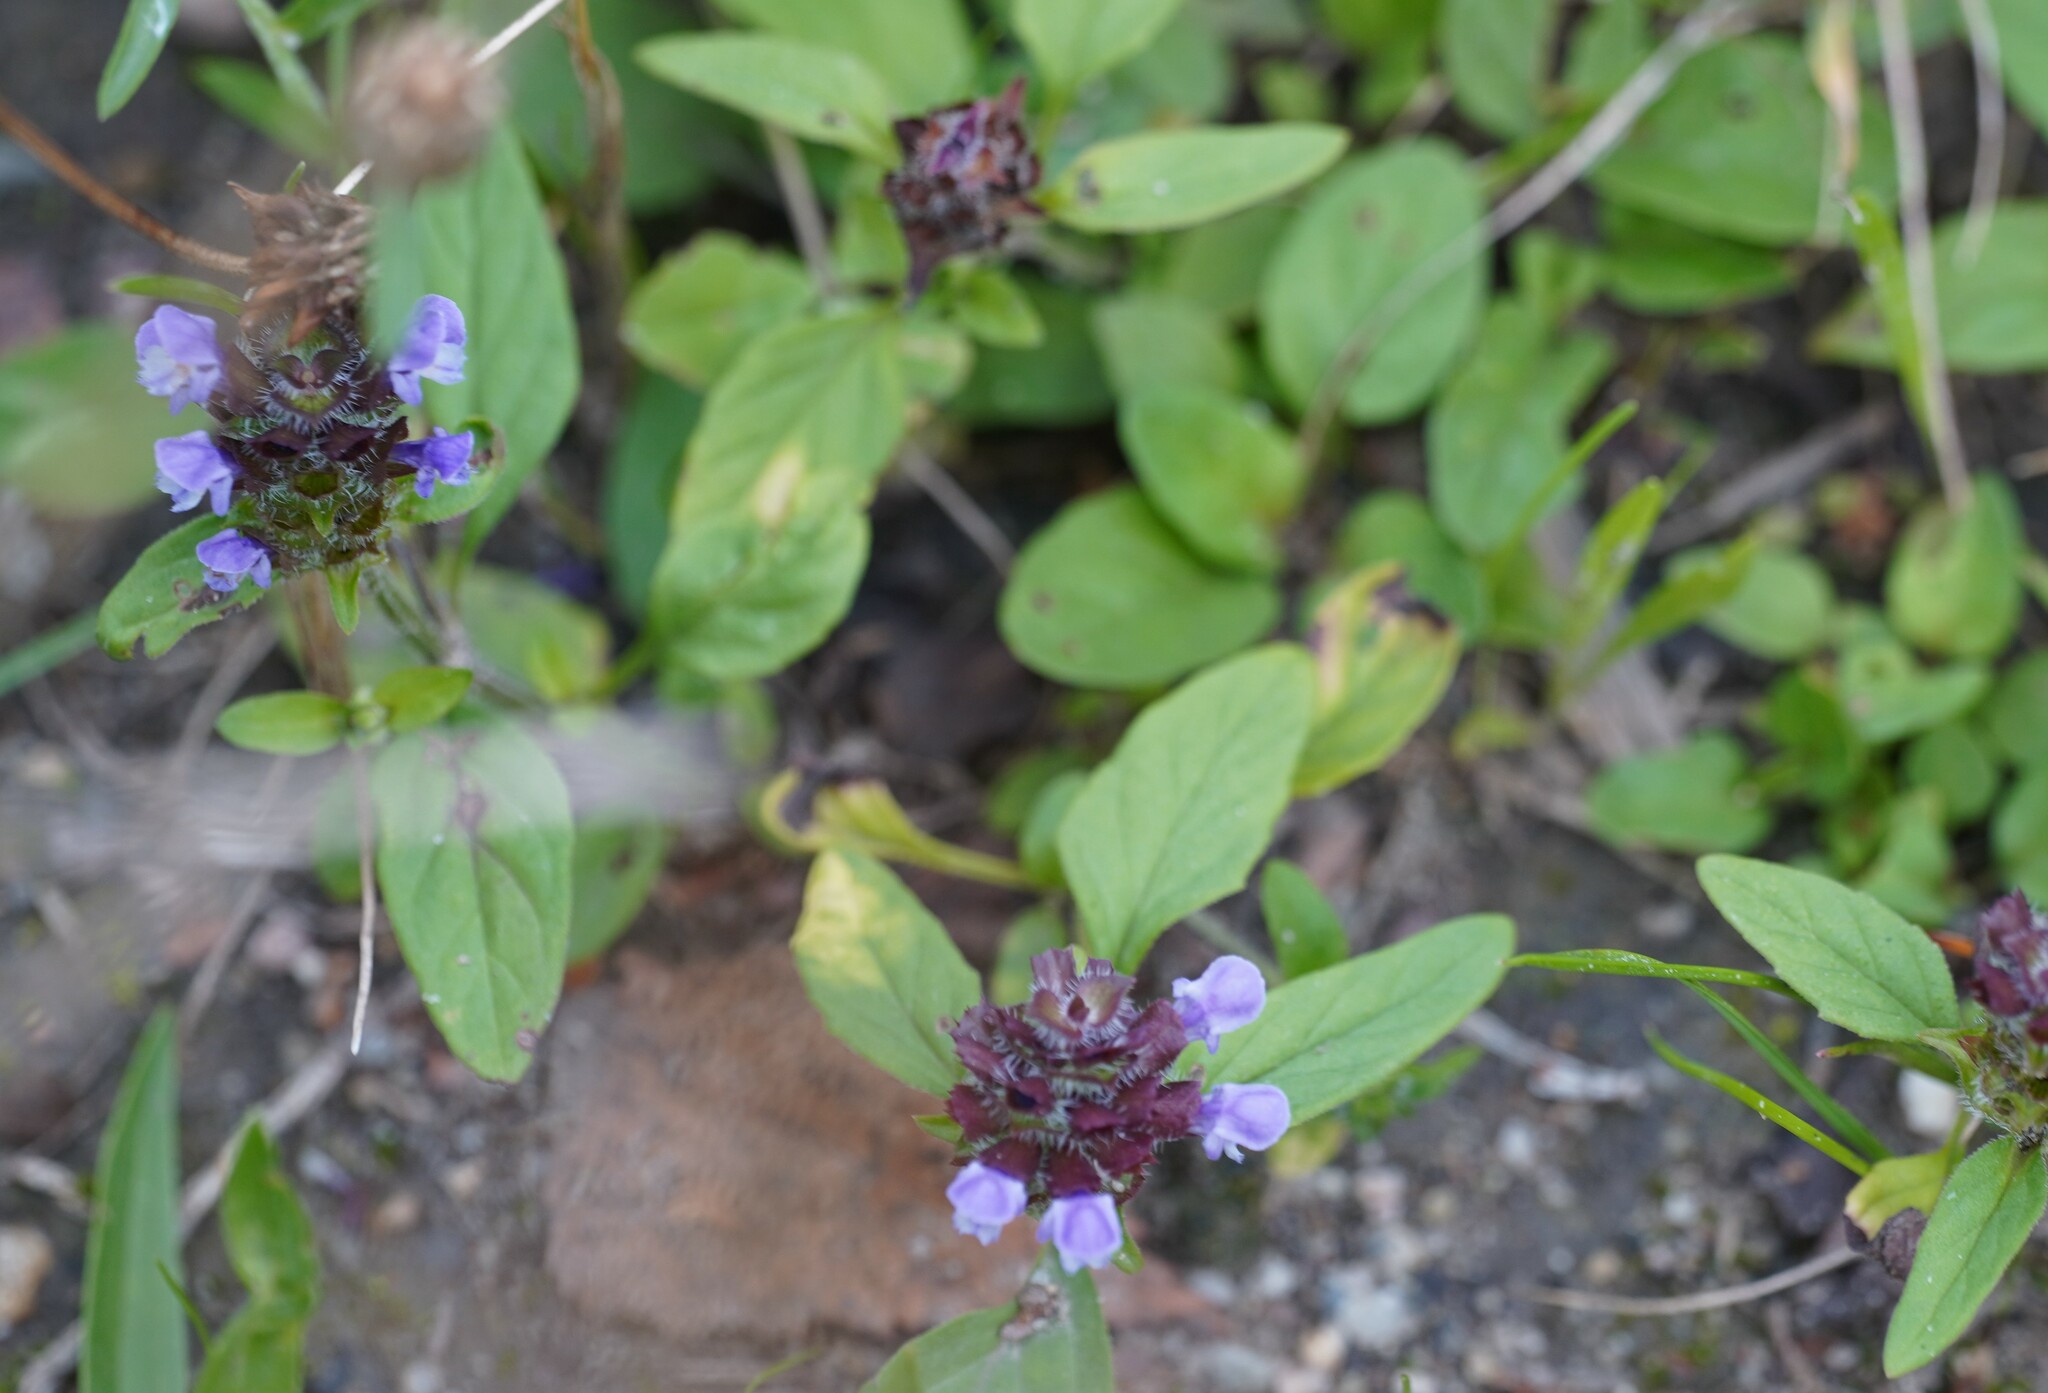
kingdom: Plantae
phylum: Tracheophyta
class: Magnoliopsida
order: Lamiales
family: Lamiaceae
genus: Prunella
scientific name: Prunella vulgaris
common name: Heal-all
